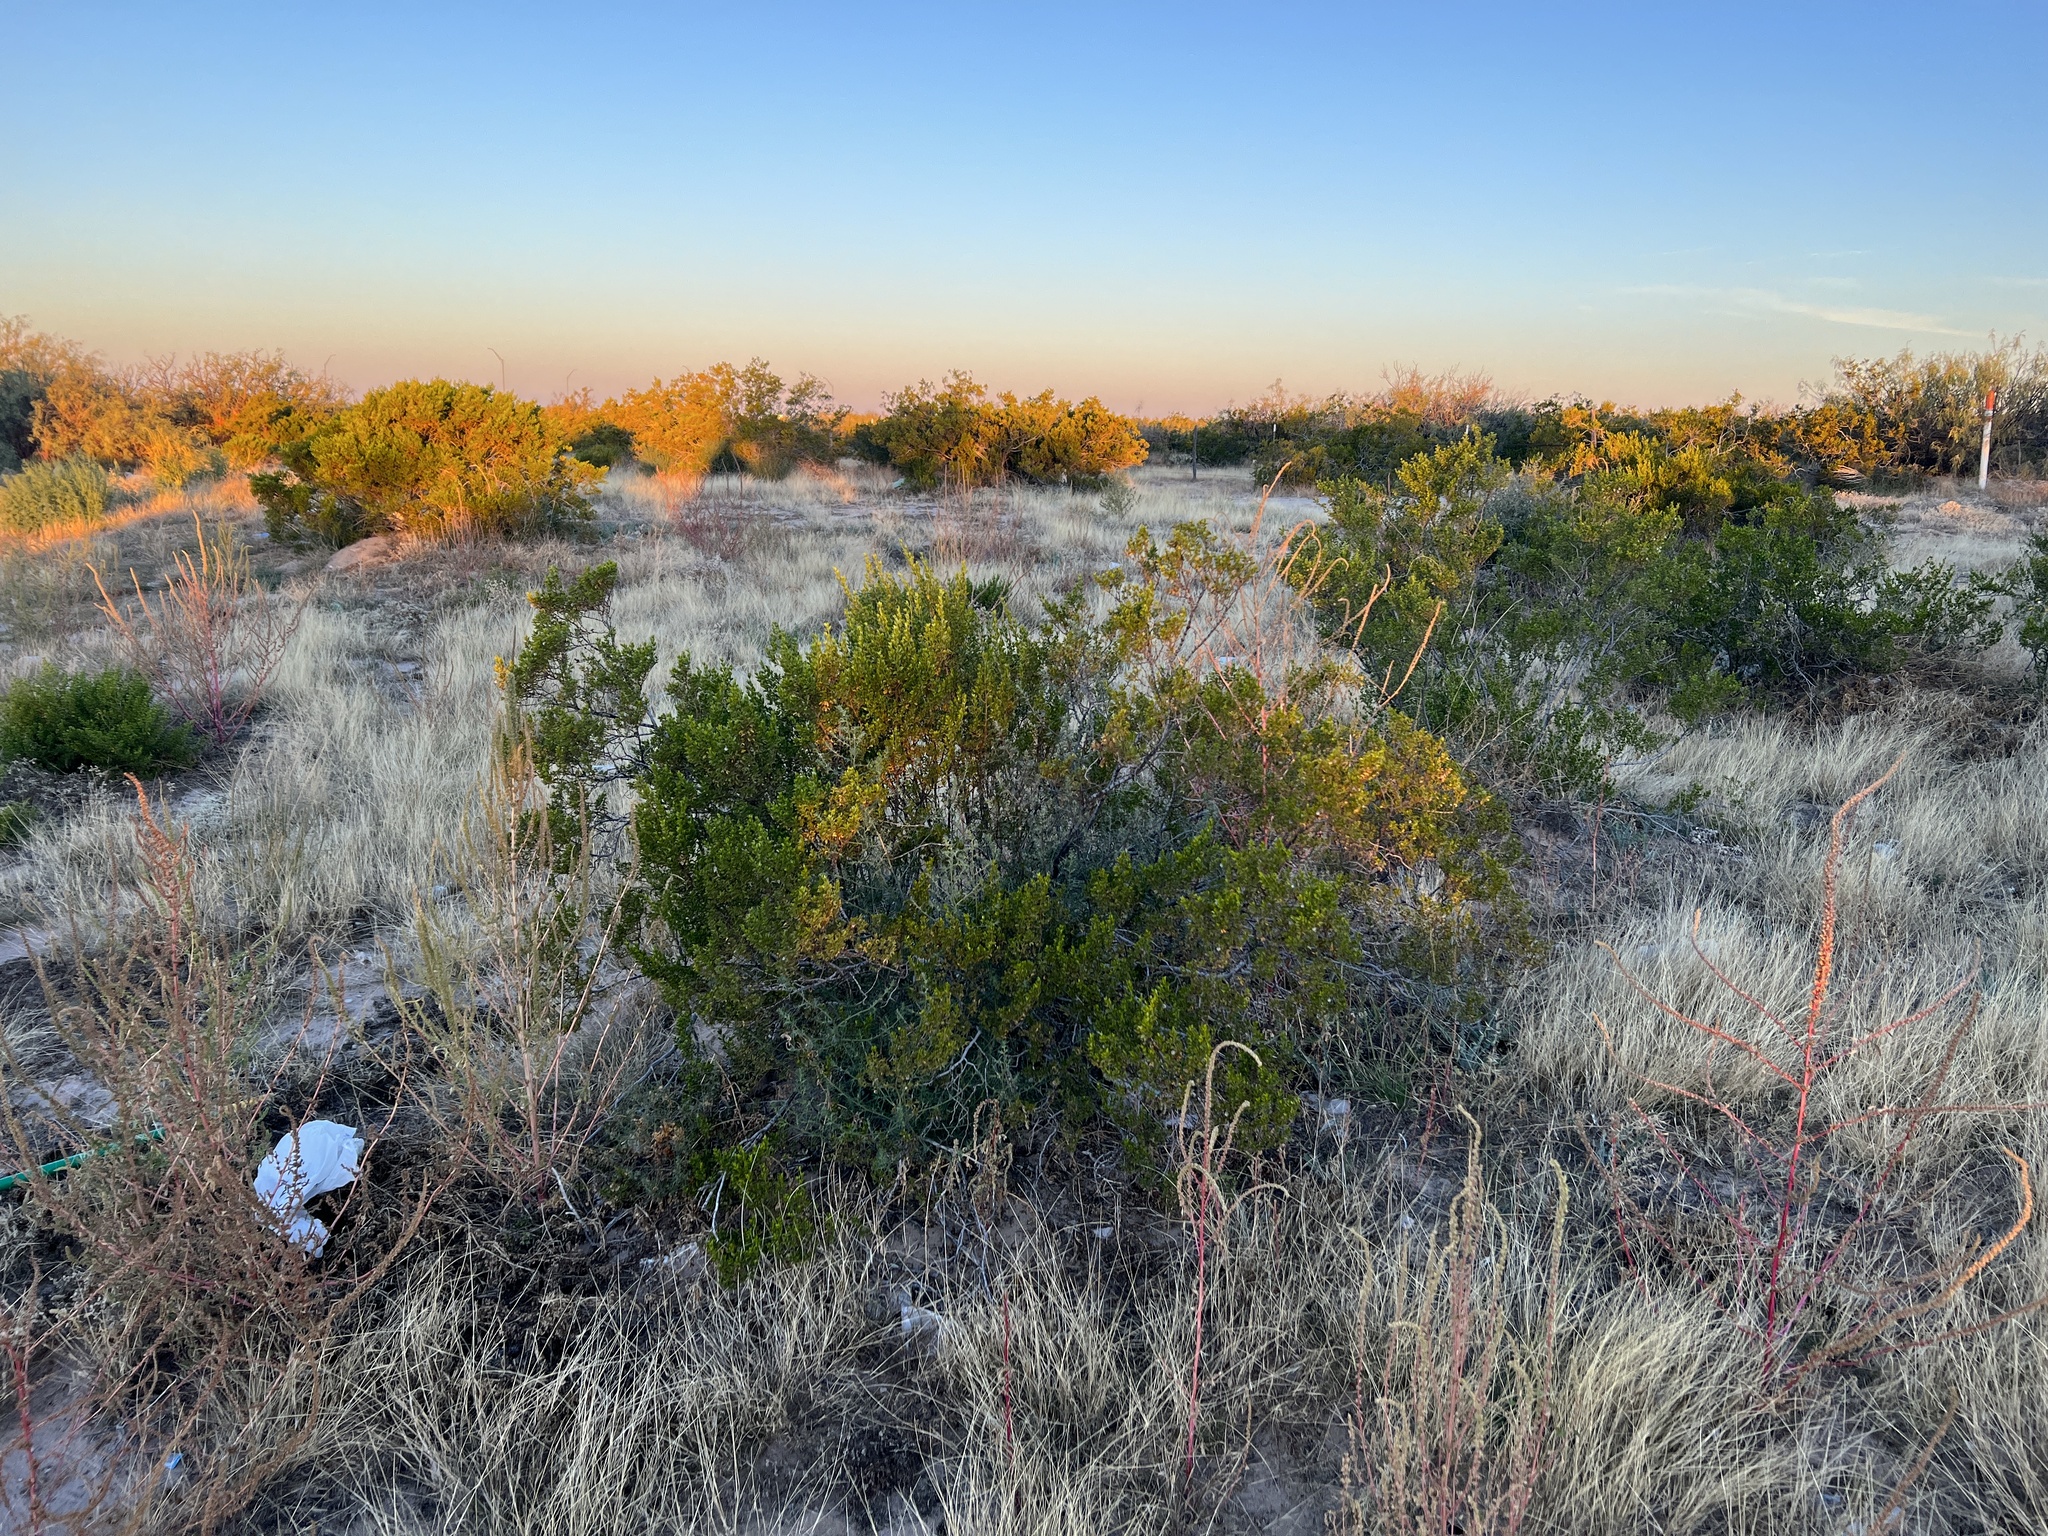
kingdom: Plantae
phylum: Tracheophyta
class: Magnoliopsida
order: Zygophyllales
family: Zygophyllaceae
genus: Larrea
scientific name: Larrea tridentata
